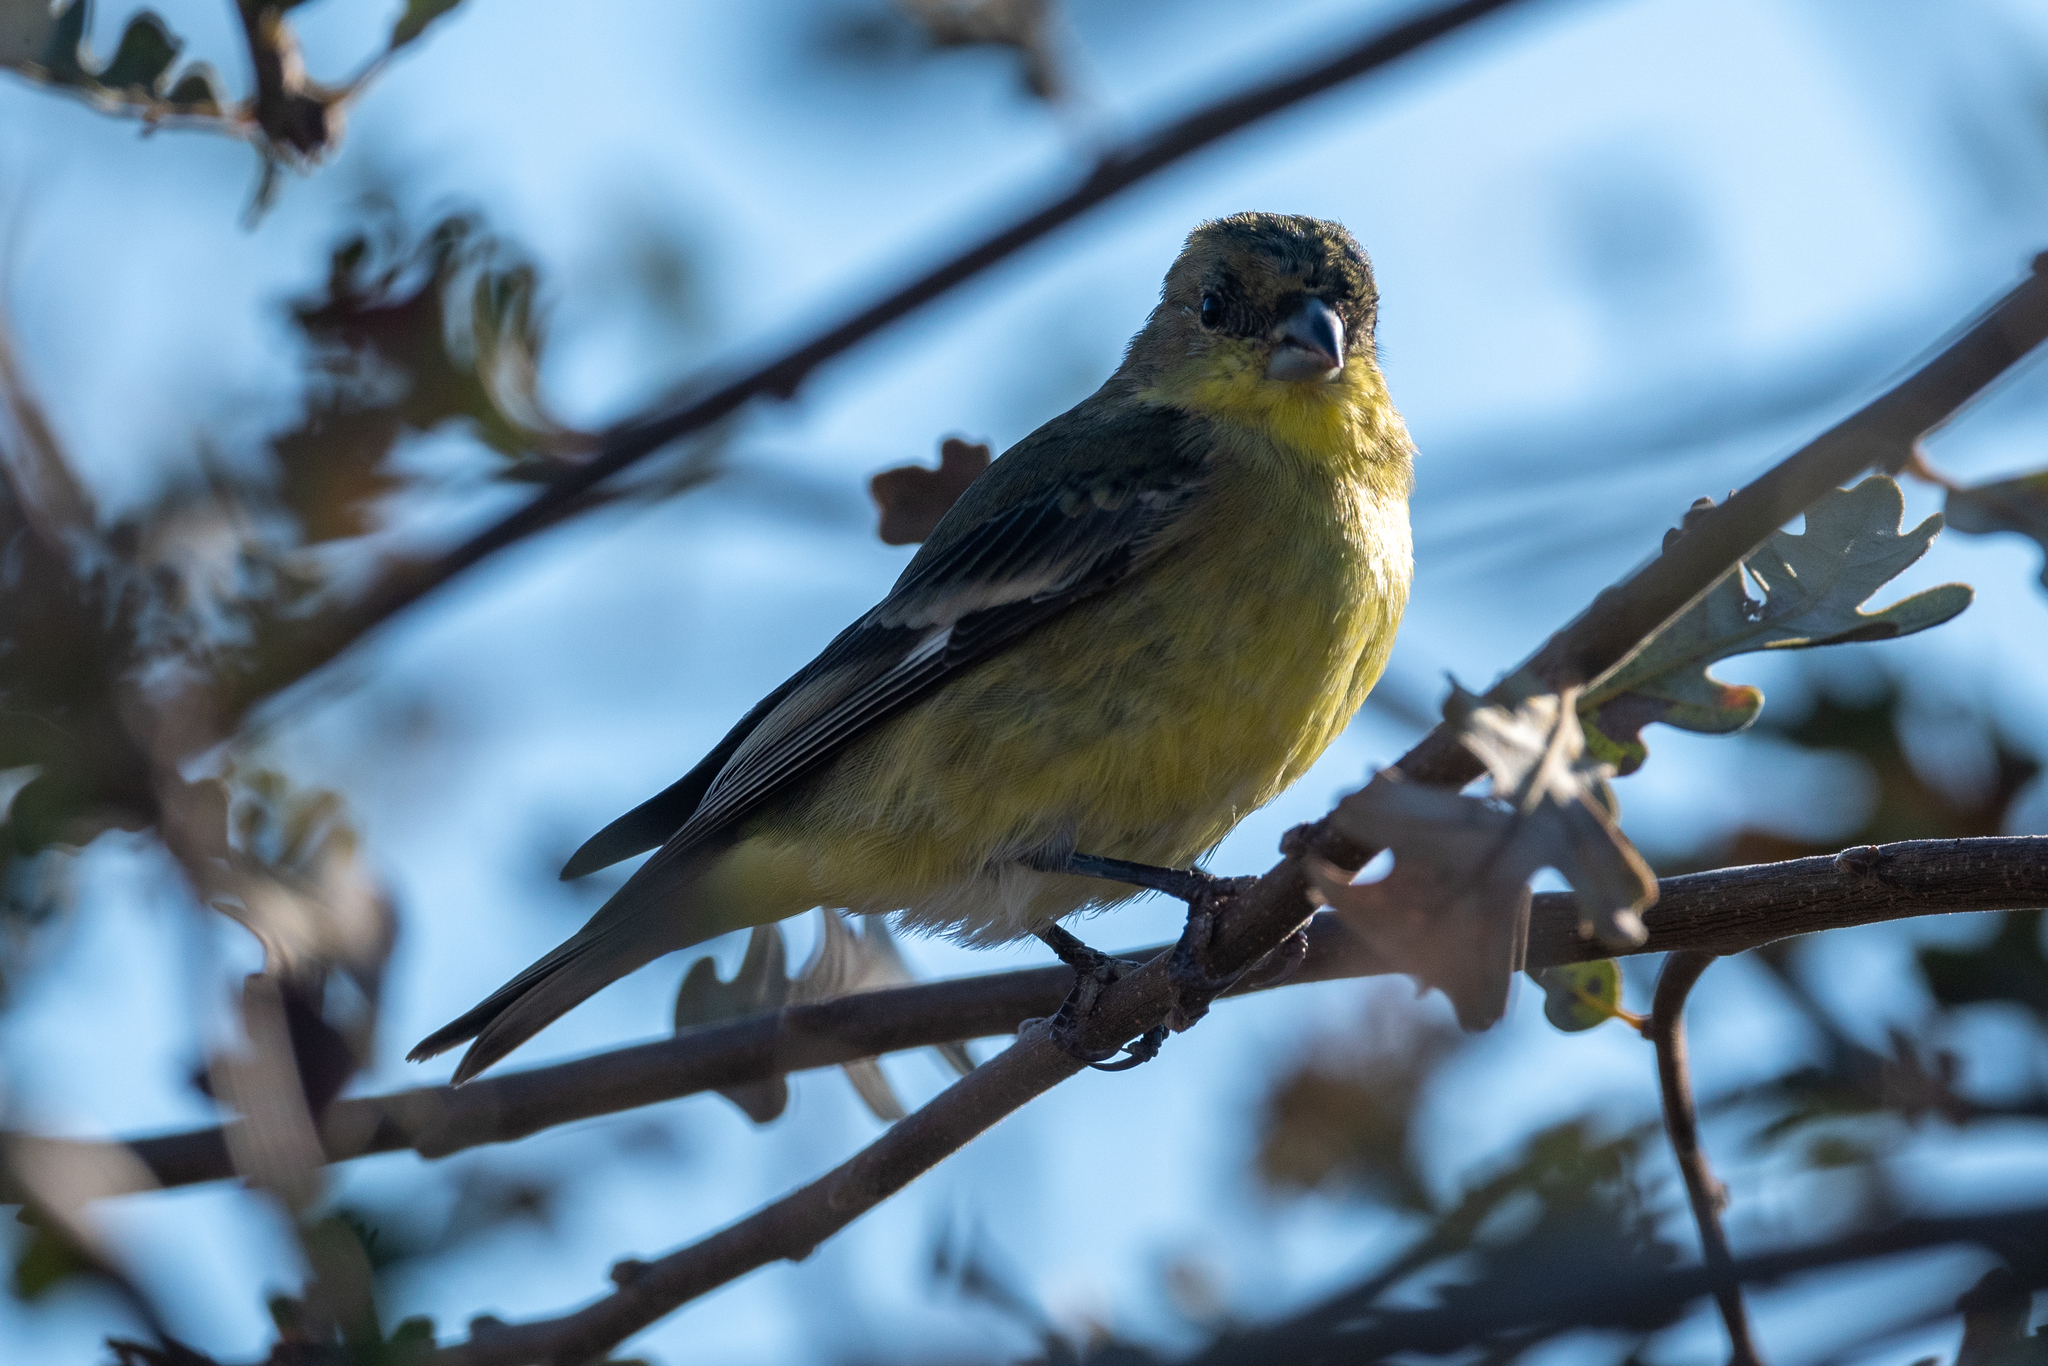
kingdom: Animalia
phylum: Chordata
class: Aves
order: Passeriformes
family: Fringillidae
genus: Spinus
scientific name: Spinus psaltria
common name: Lesser goldfinch
